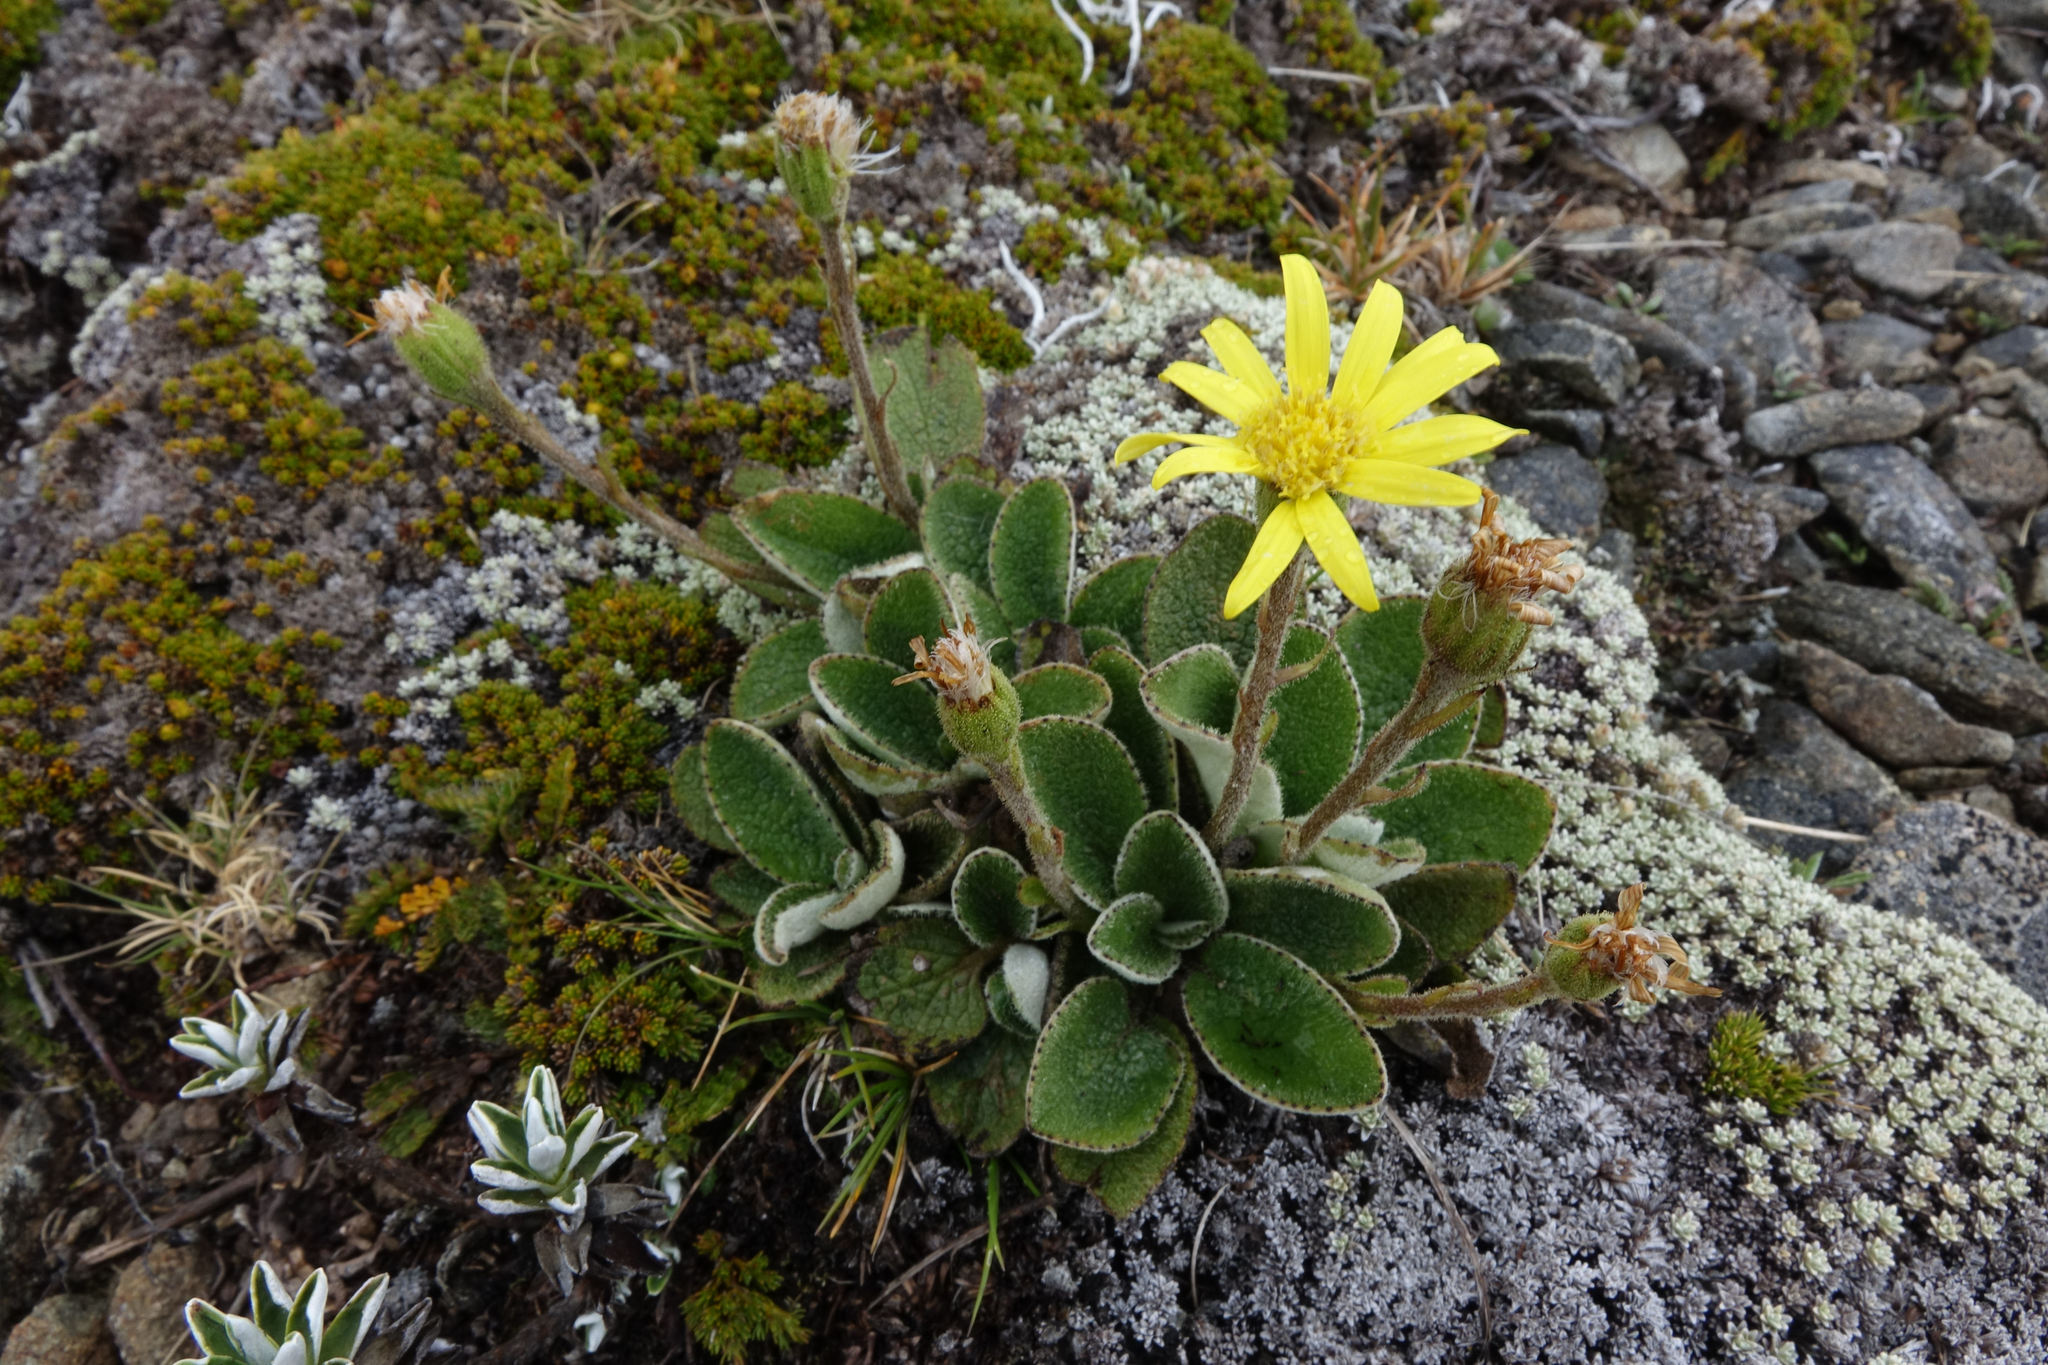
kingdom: Plantae
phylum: Tracheophyta
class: Magnoliopsida
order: Asterales
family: Asteraceae
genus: Brachyglottis
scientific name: Brachyglottis bellidioides
